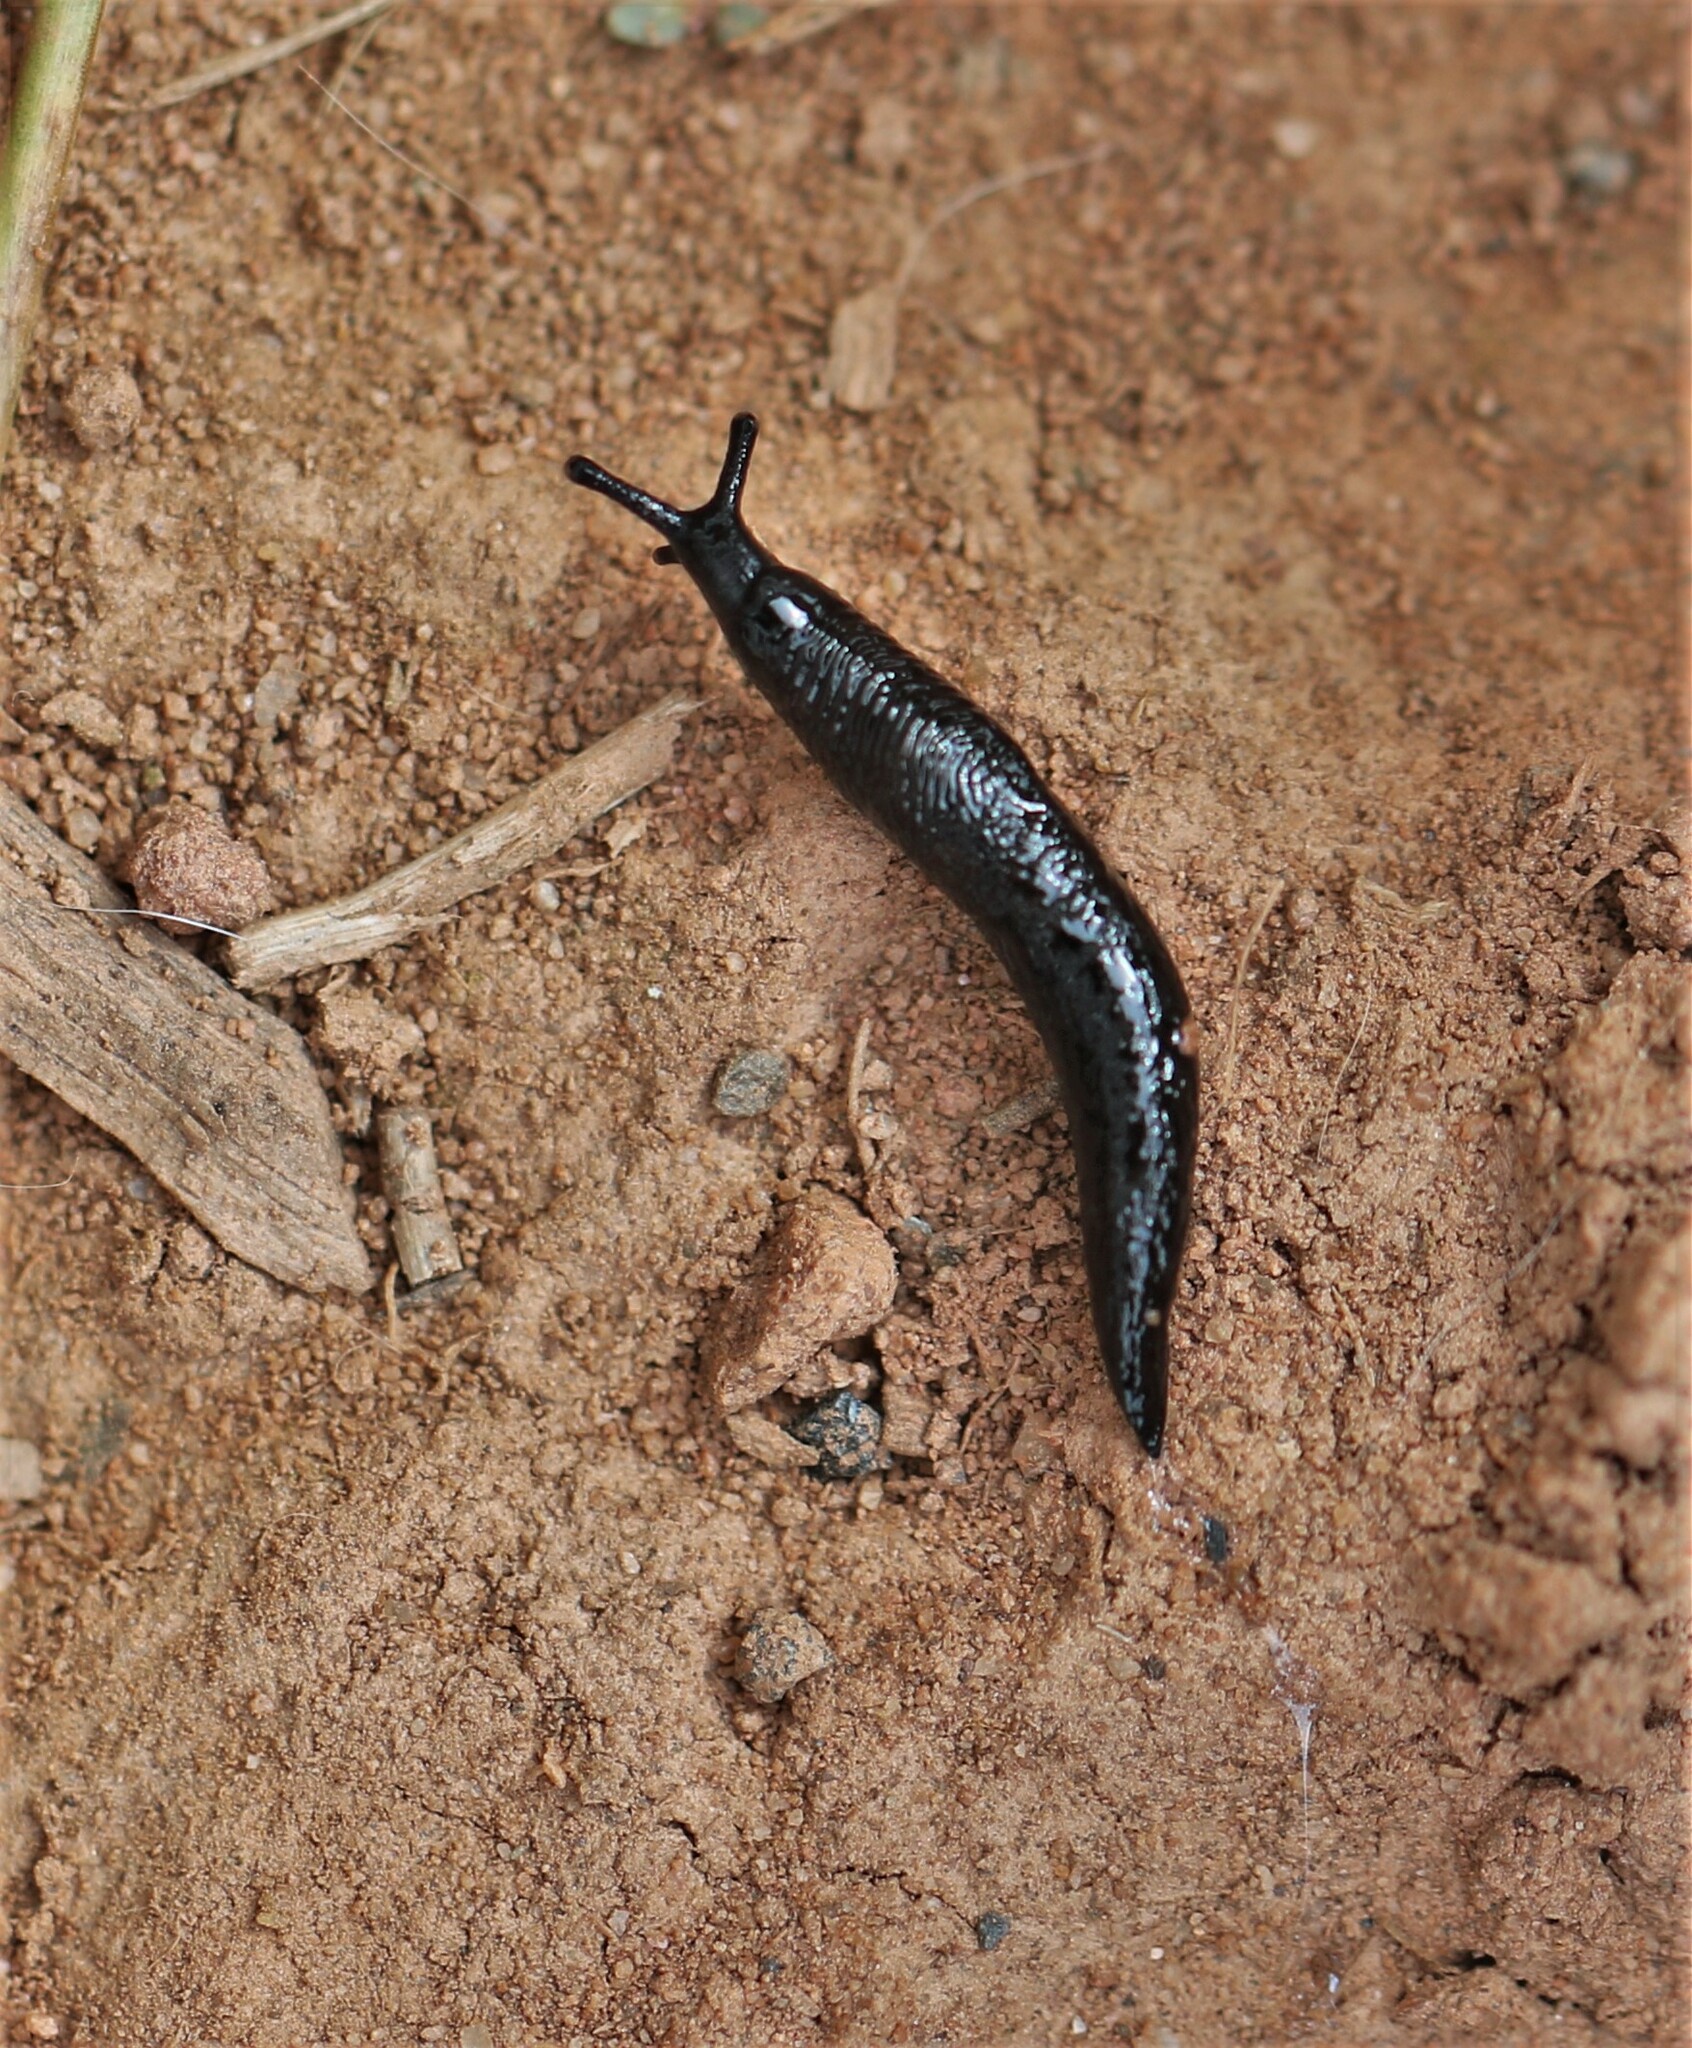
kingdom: Animalia
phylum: Mollusca
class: Gastropoda
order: Stylommatophora
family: Agriolimacidae
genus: Deroceras
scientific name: Deroceras laeve
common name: Marsh slug
